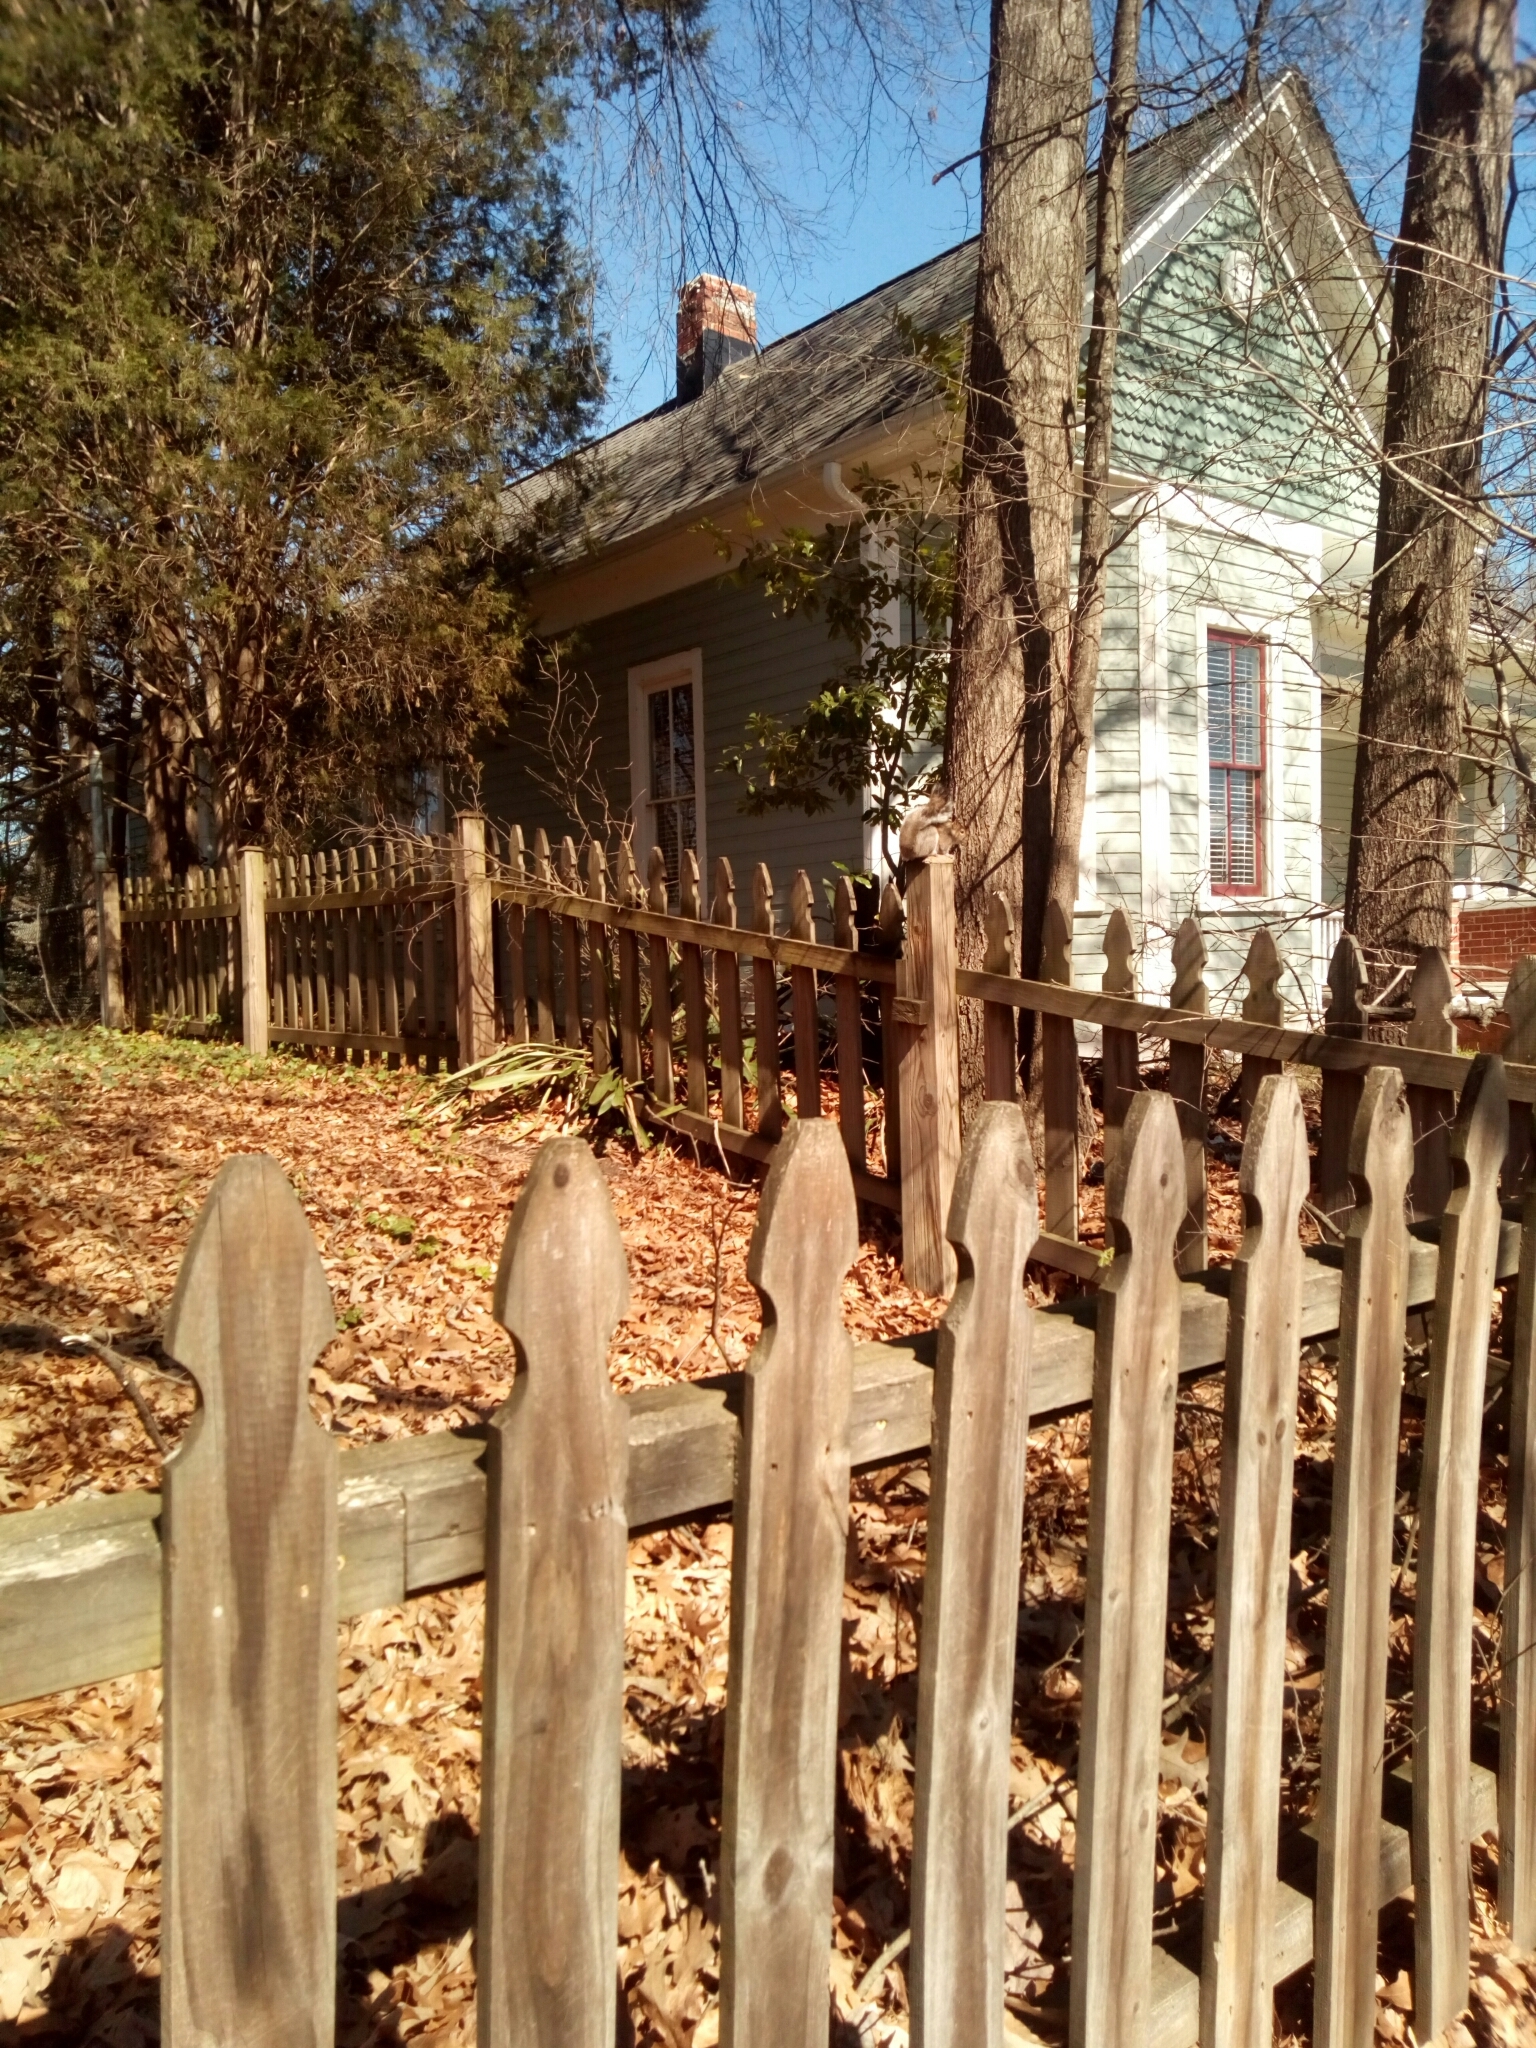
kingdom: Animalia
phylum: Chordata
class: Mammalia
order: Rodentia
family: Sciuridae
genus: Sciurus
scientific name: Sciurus carolinensis
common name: Eastern gray squirrel
